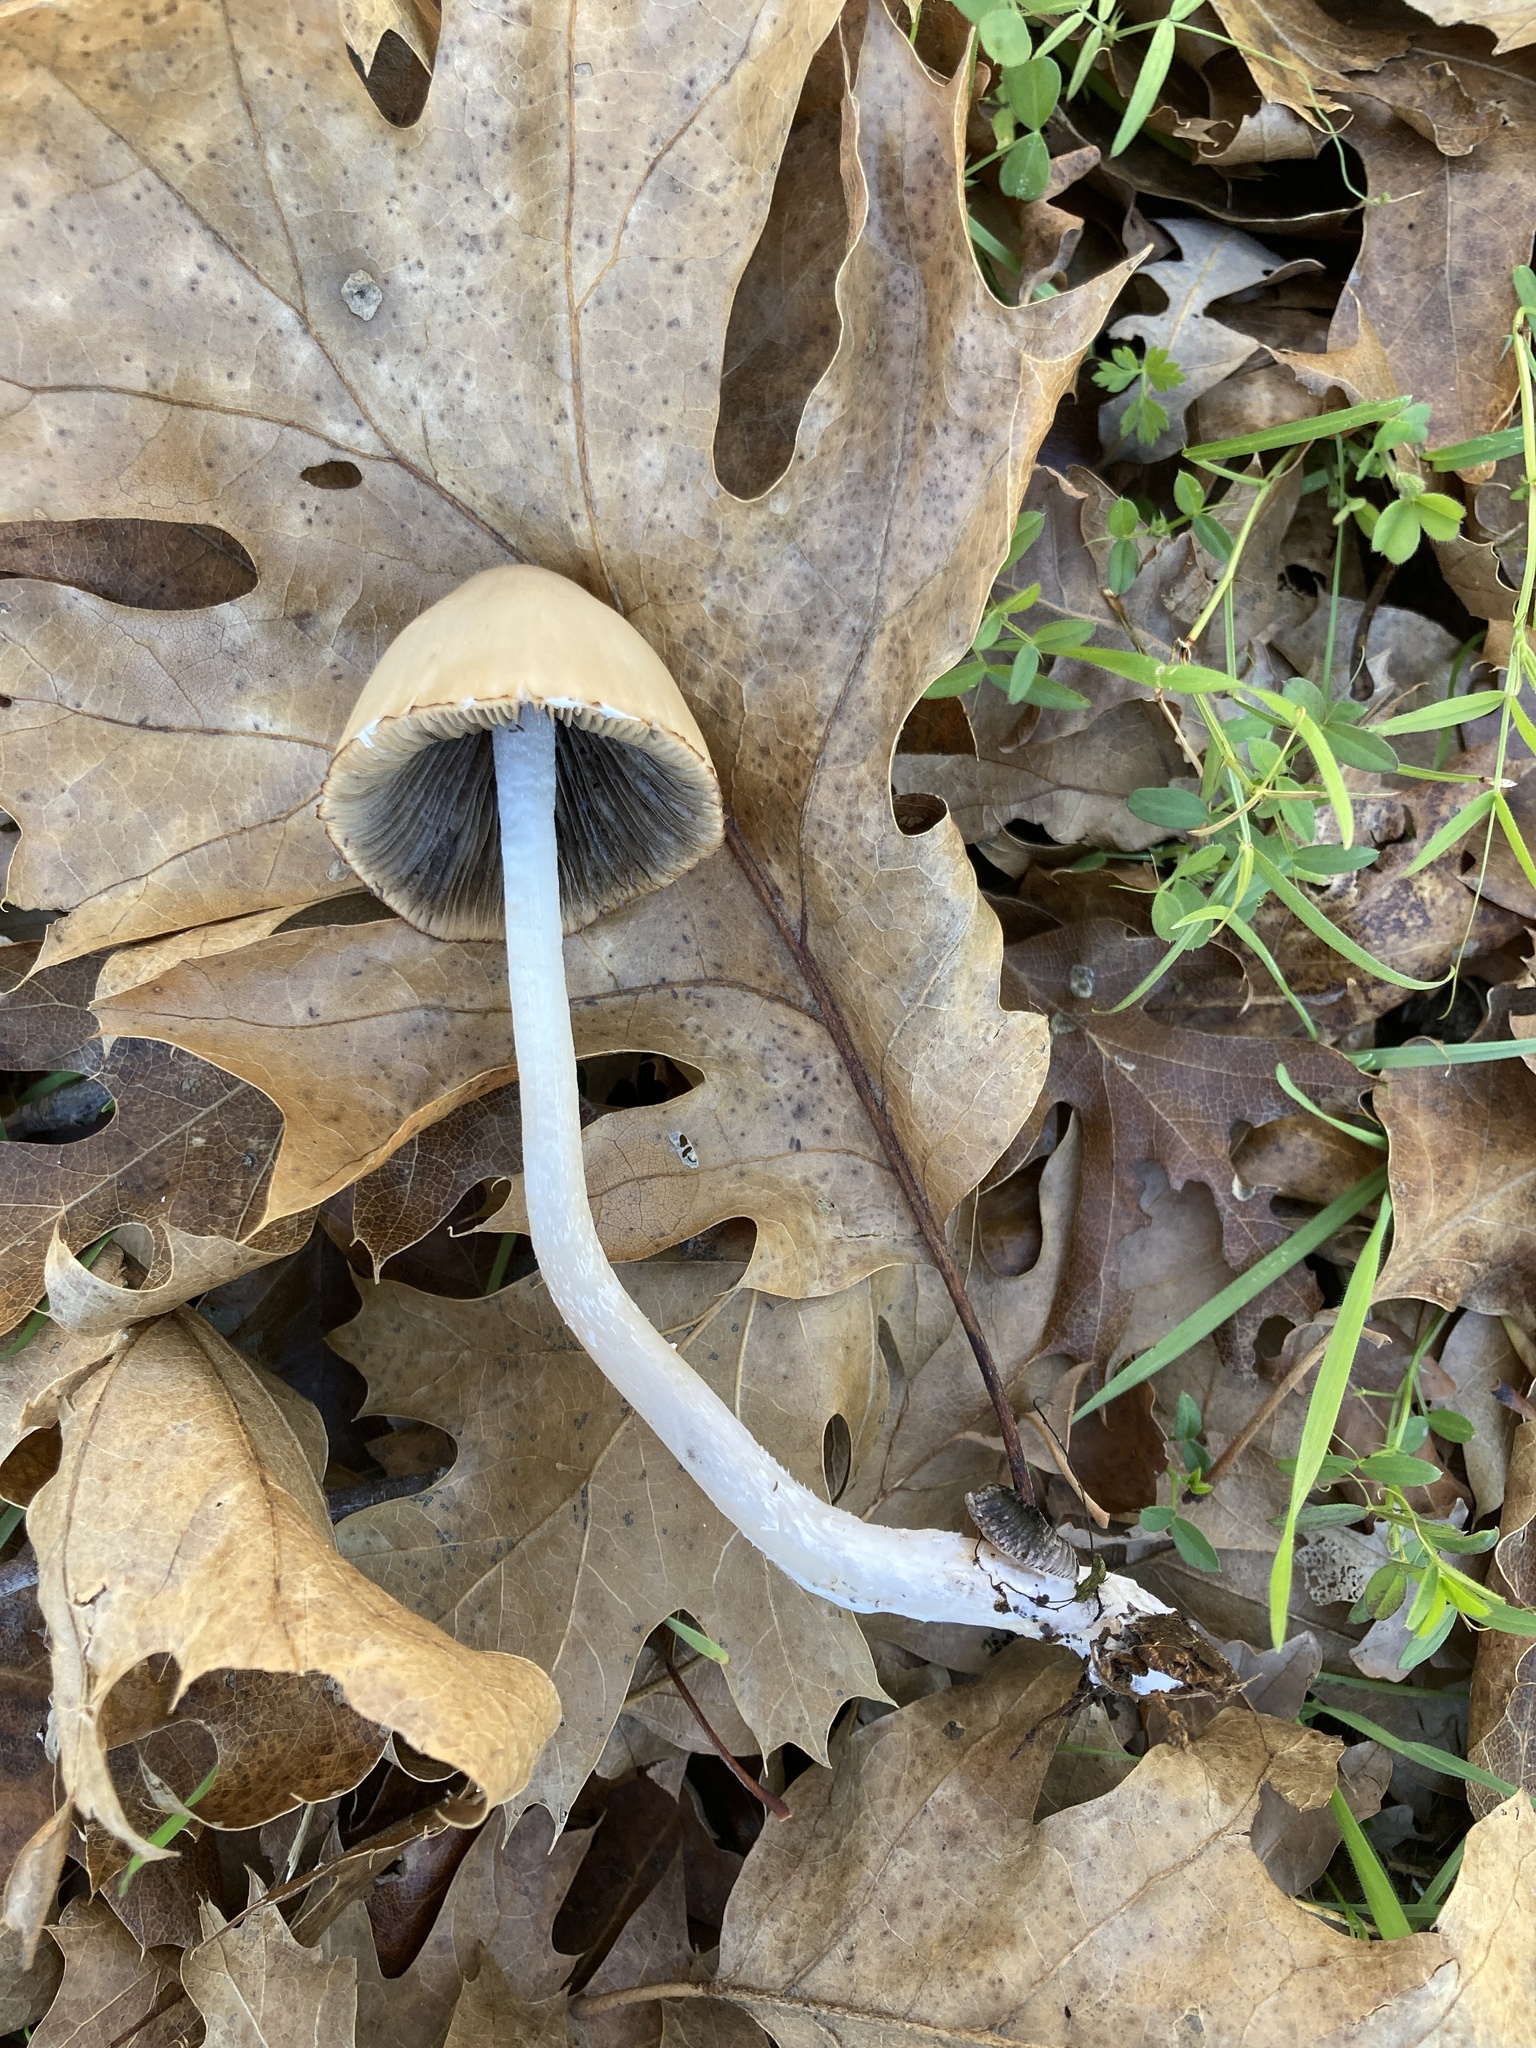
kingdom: Fungi
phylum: Basidiomycota
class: Agaricomycetes
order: Agaricales
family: Psathyrellaceae
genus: Psathyrella
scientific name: Psathyrella longipes
